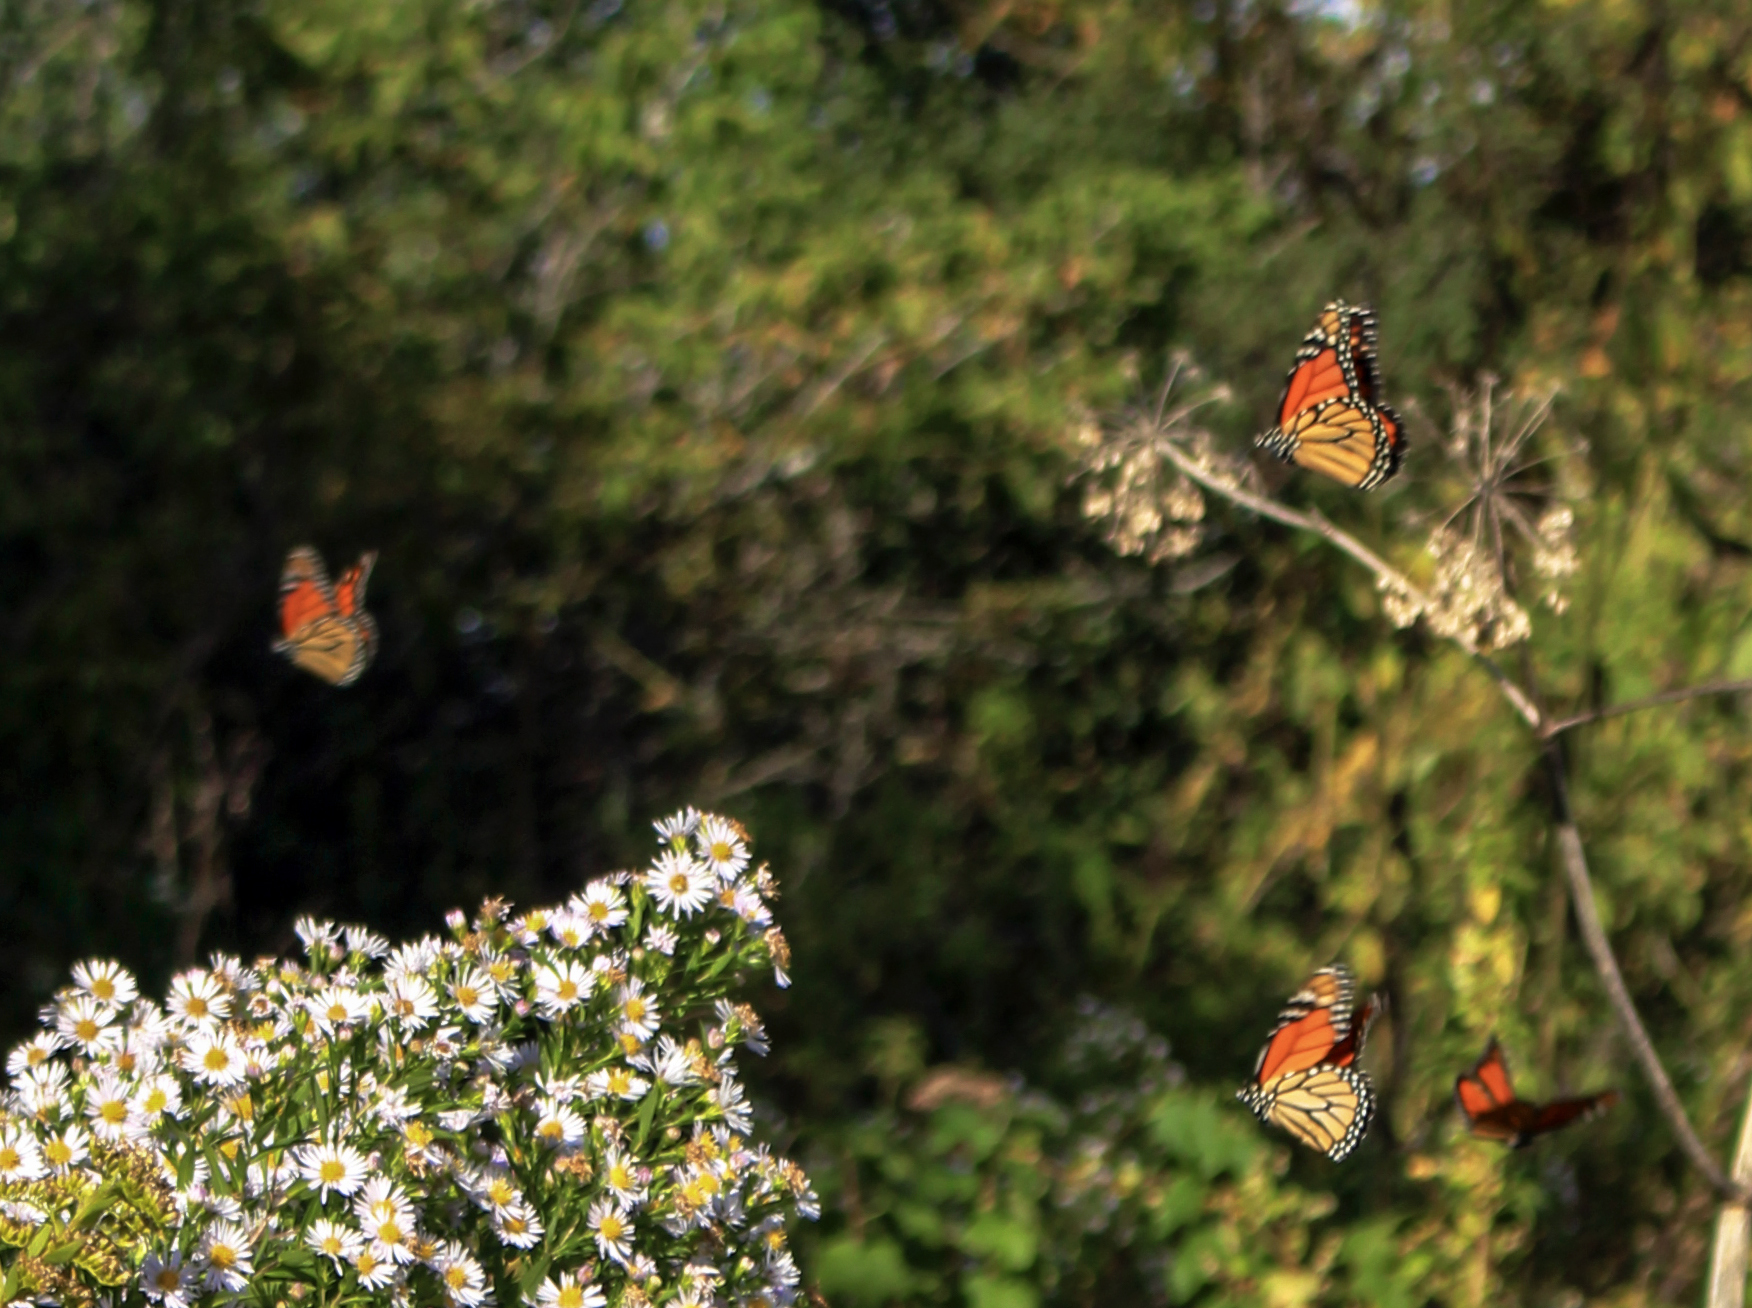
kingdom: Animalia
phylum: Arthropoda
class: Insecta
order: Lepidoptera
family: Nymphalidae
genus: Danaus
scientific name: Danaus plexippus
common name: Monarch
